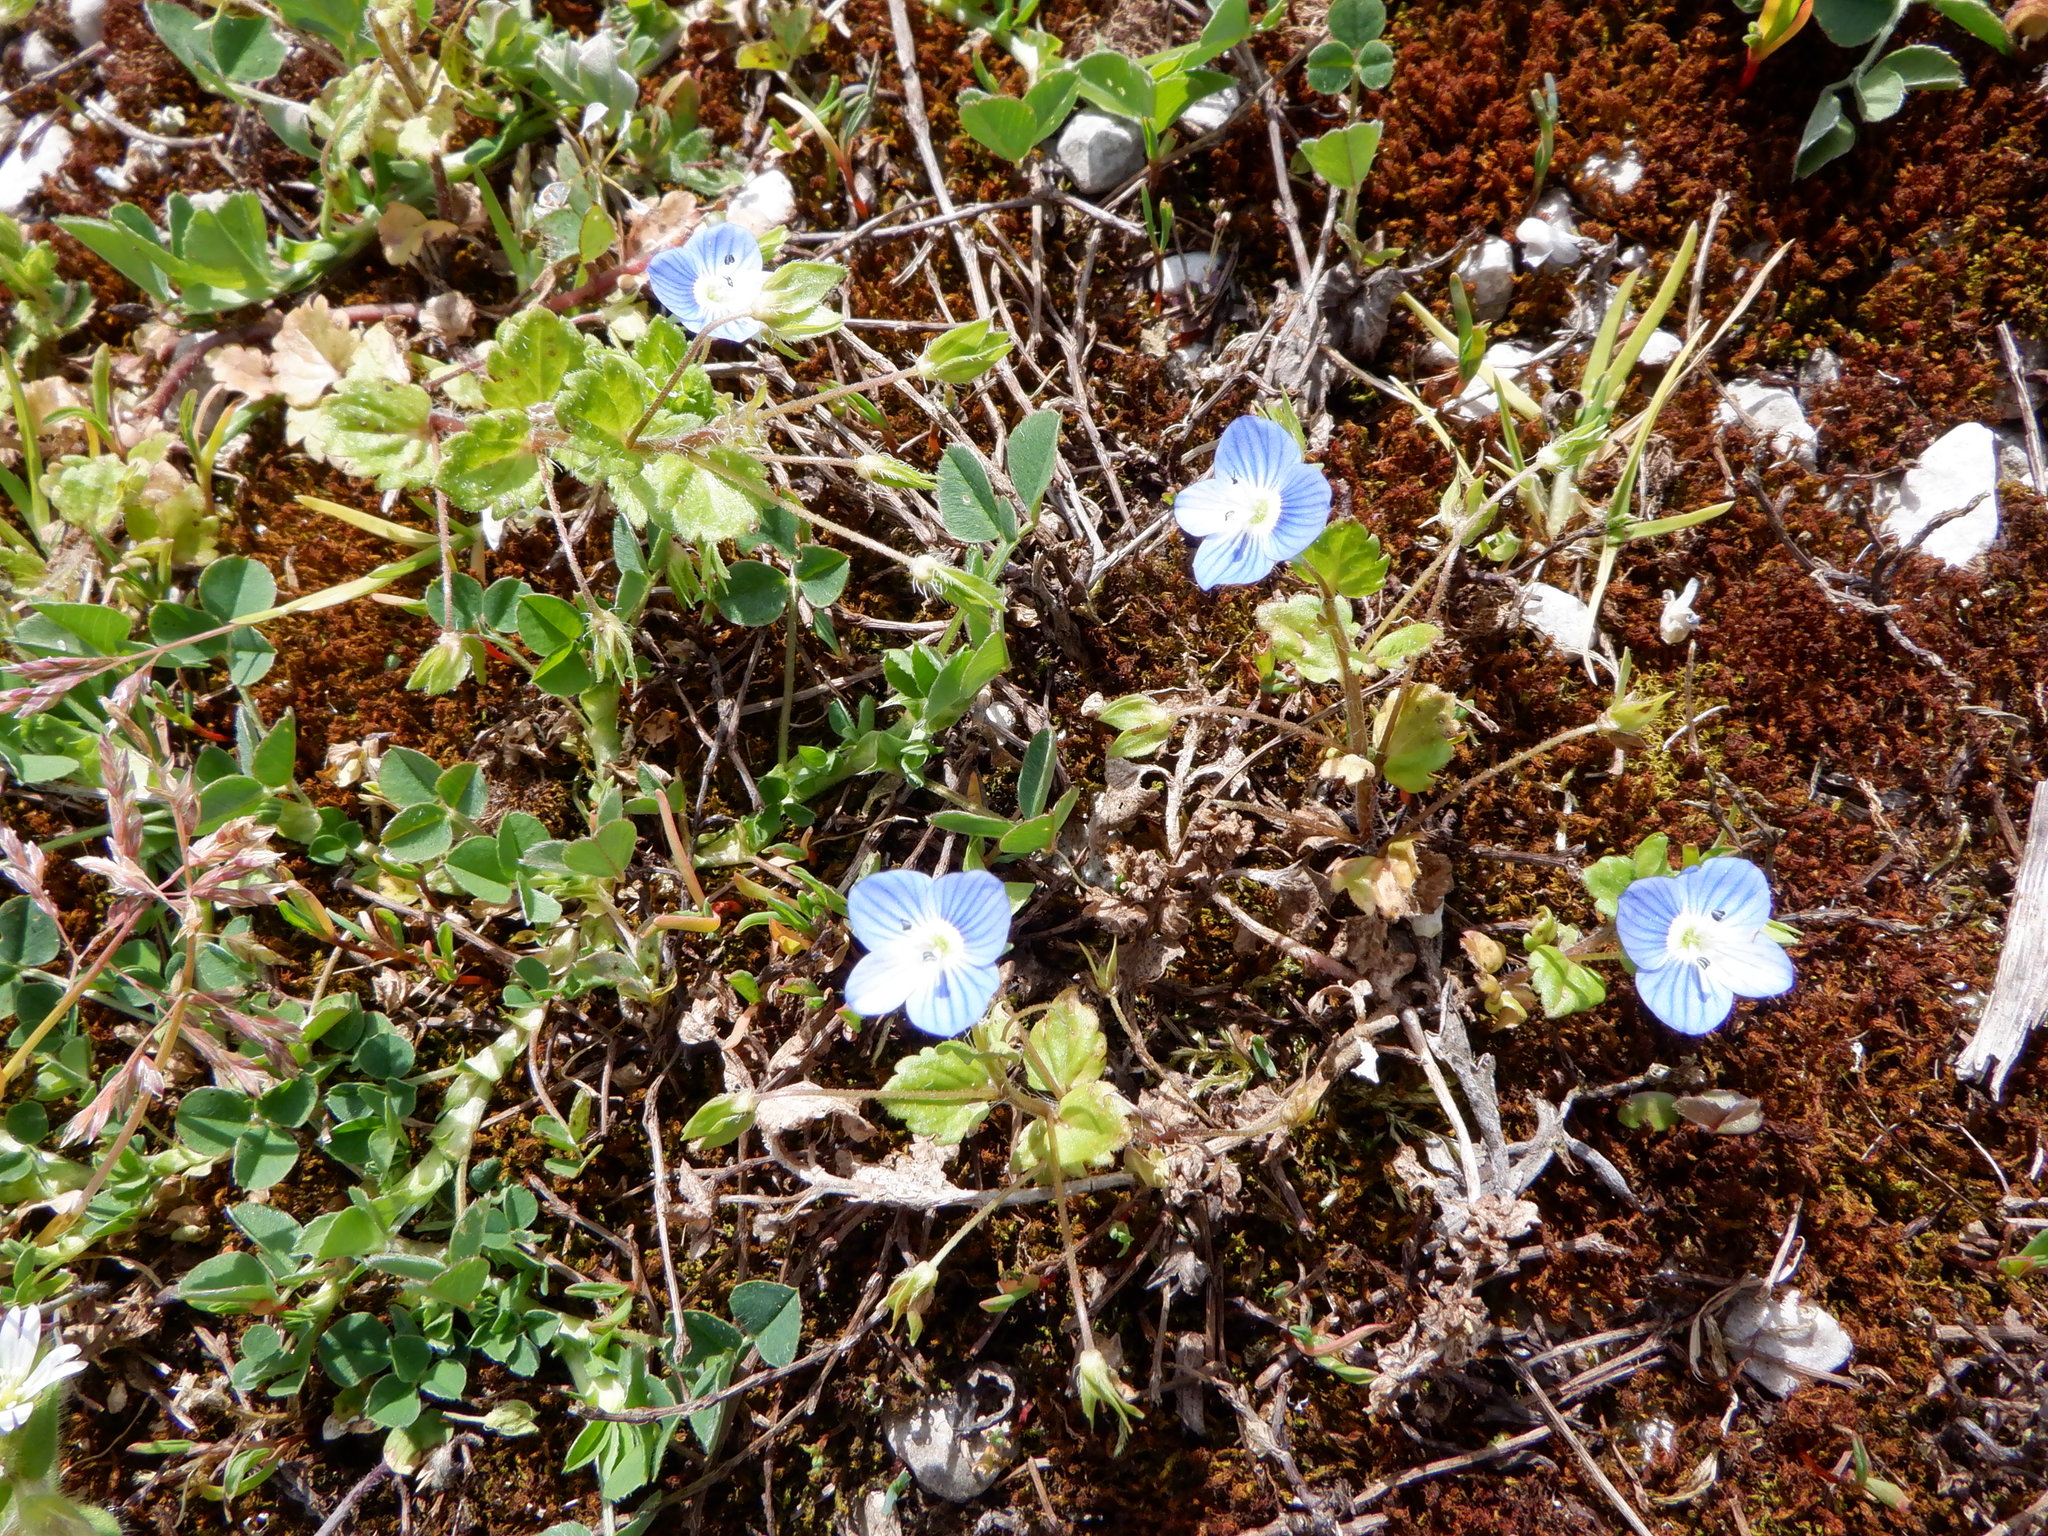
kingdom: Plantae
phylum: Tracheophyta
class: Magnoliopsida
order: Lamiales
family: Plantaginaceae
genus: Veronica
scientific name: Veronica persica
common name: Common field-speedwell
